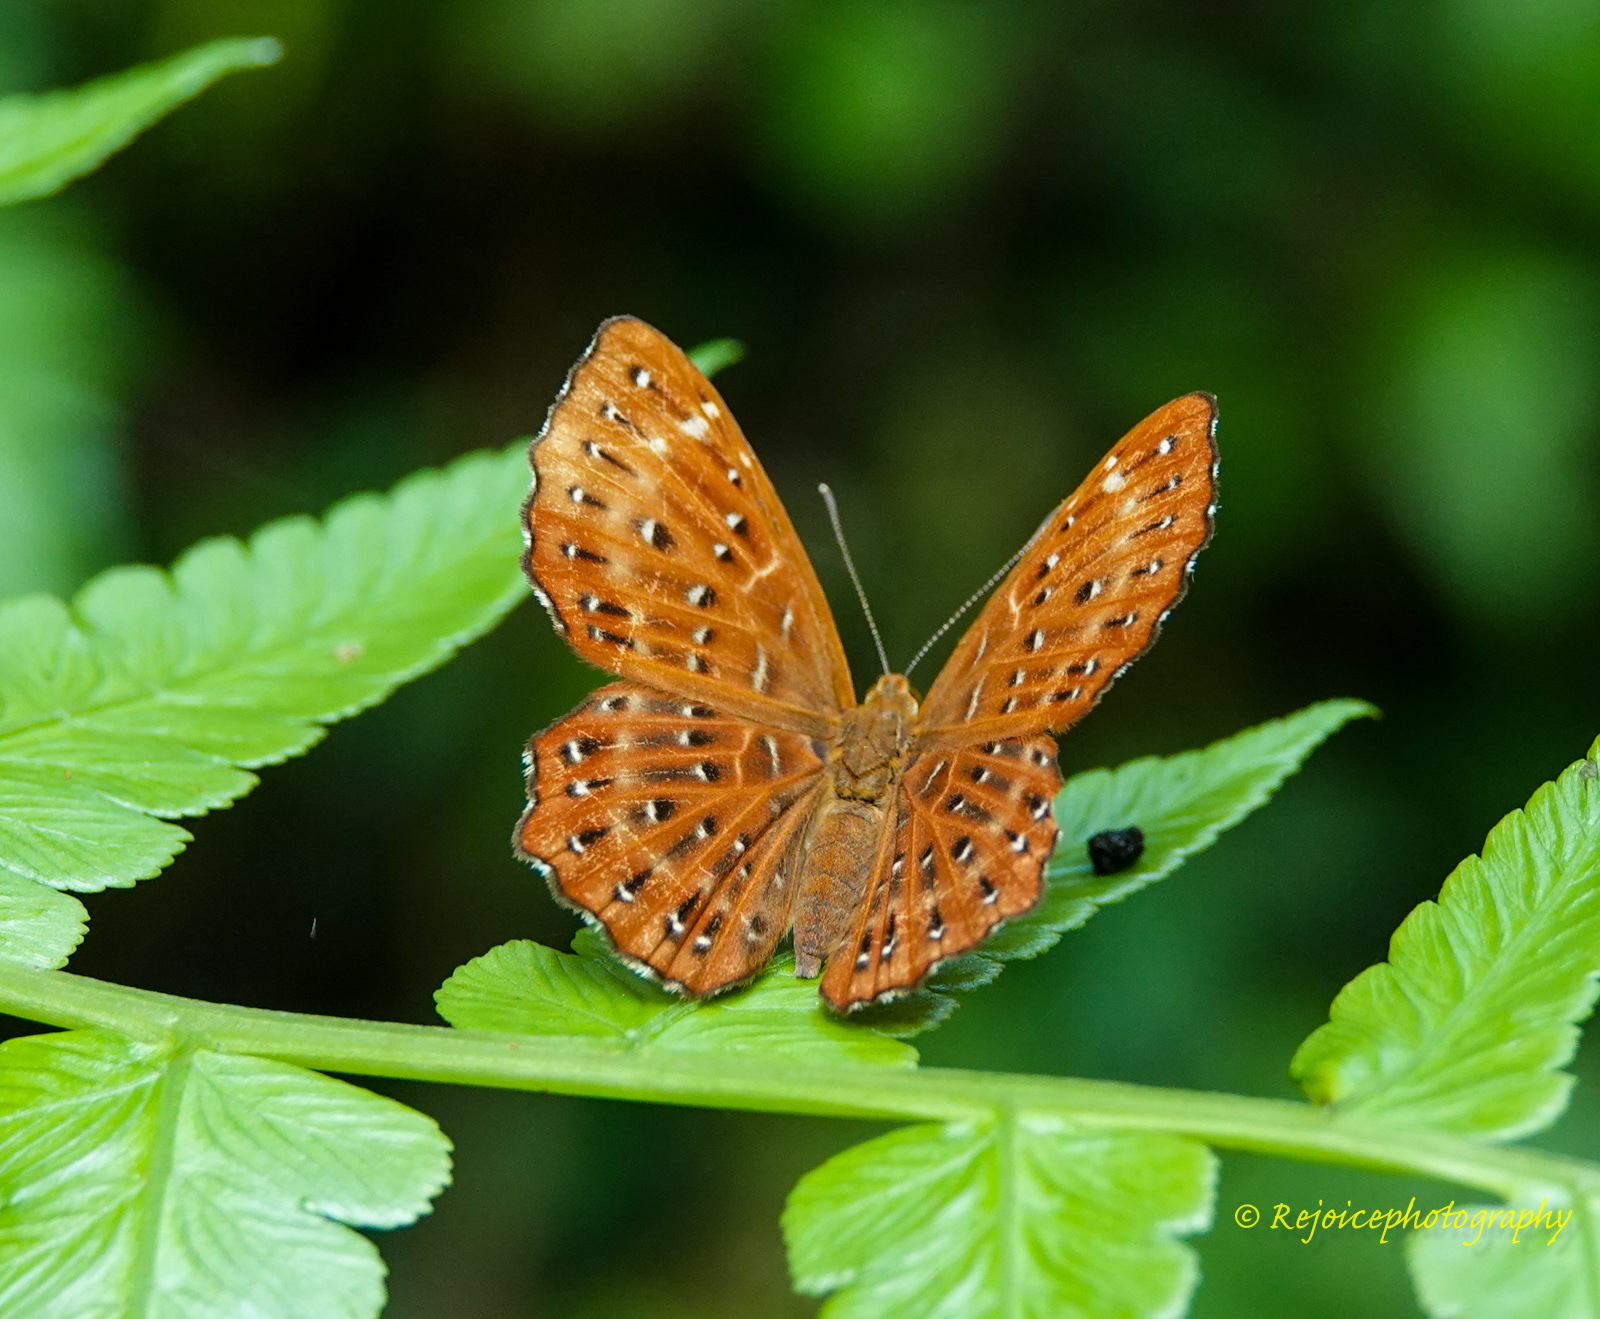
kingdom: Animalia
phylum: Arthropoda
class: Insecta
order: Lepidoptera
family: Riodinidae
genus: Zemeros
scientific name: Zemeros flegyas
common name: Punchinello
